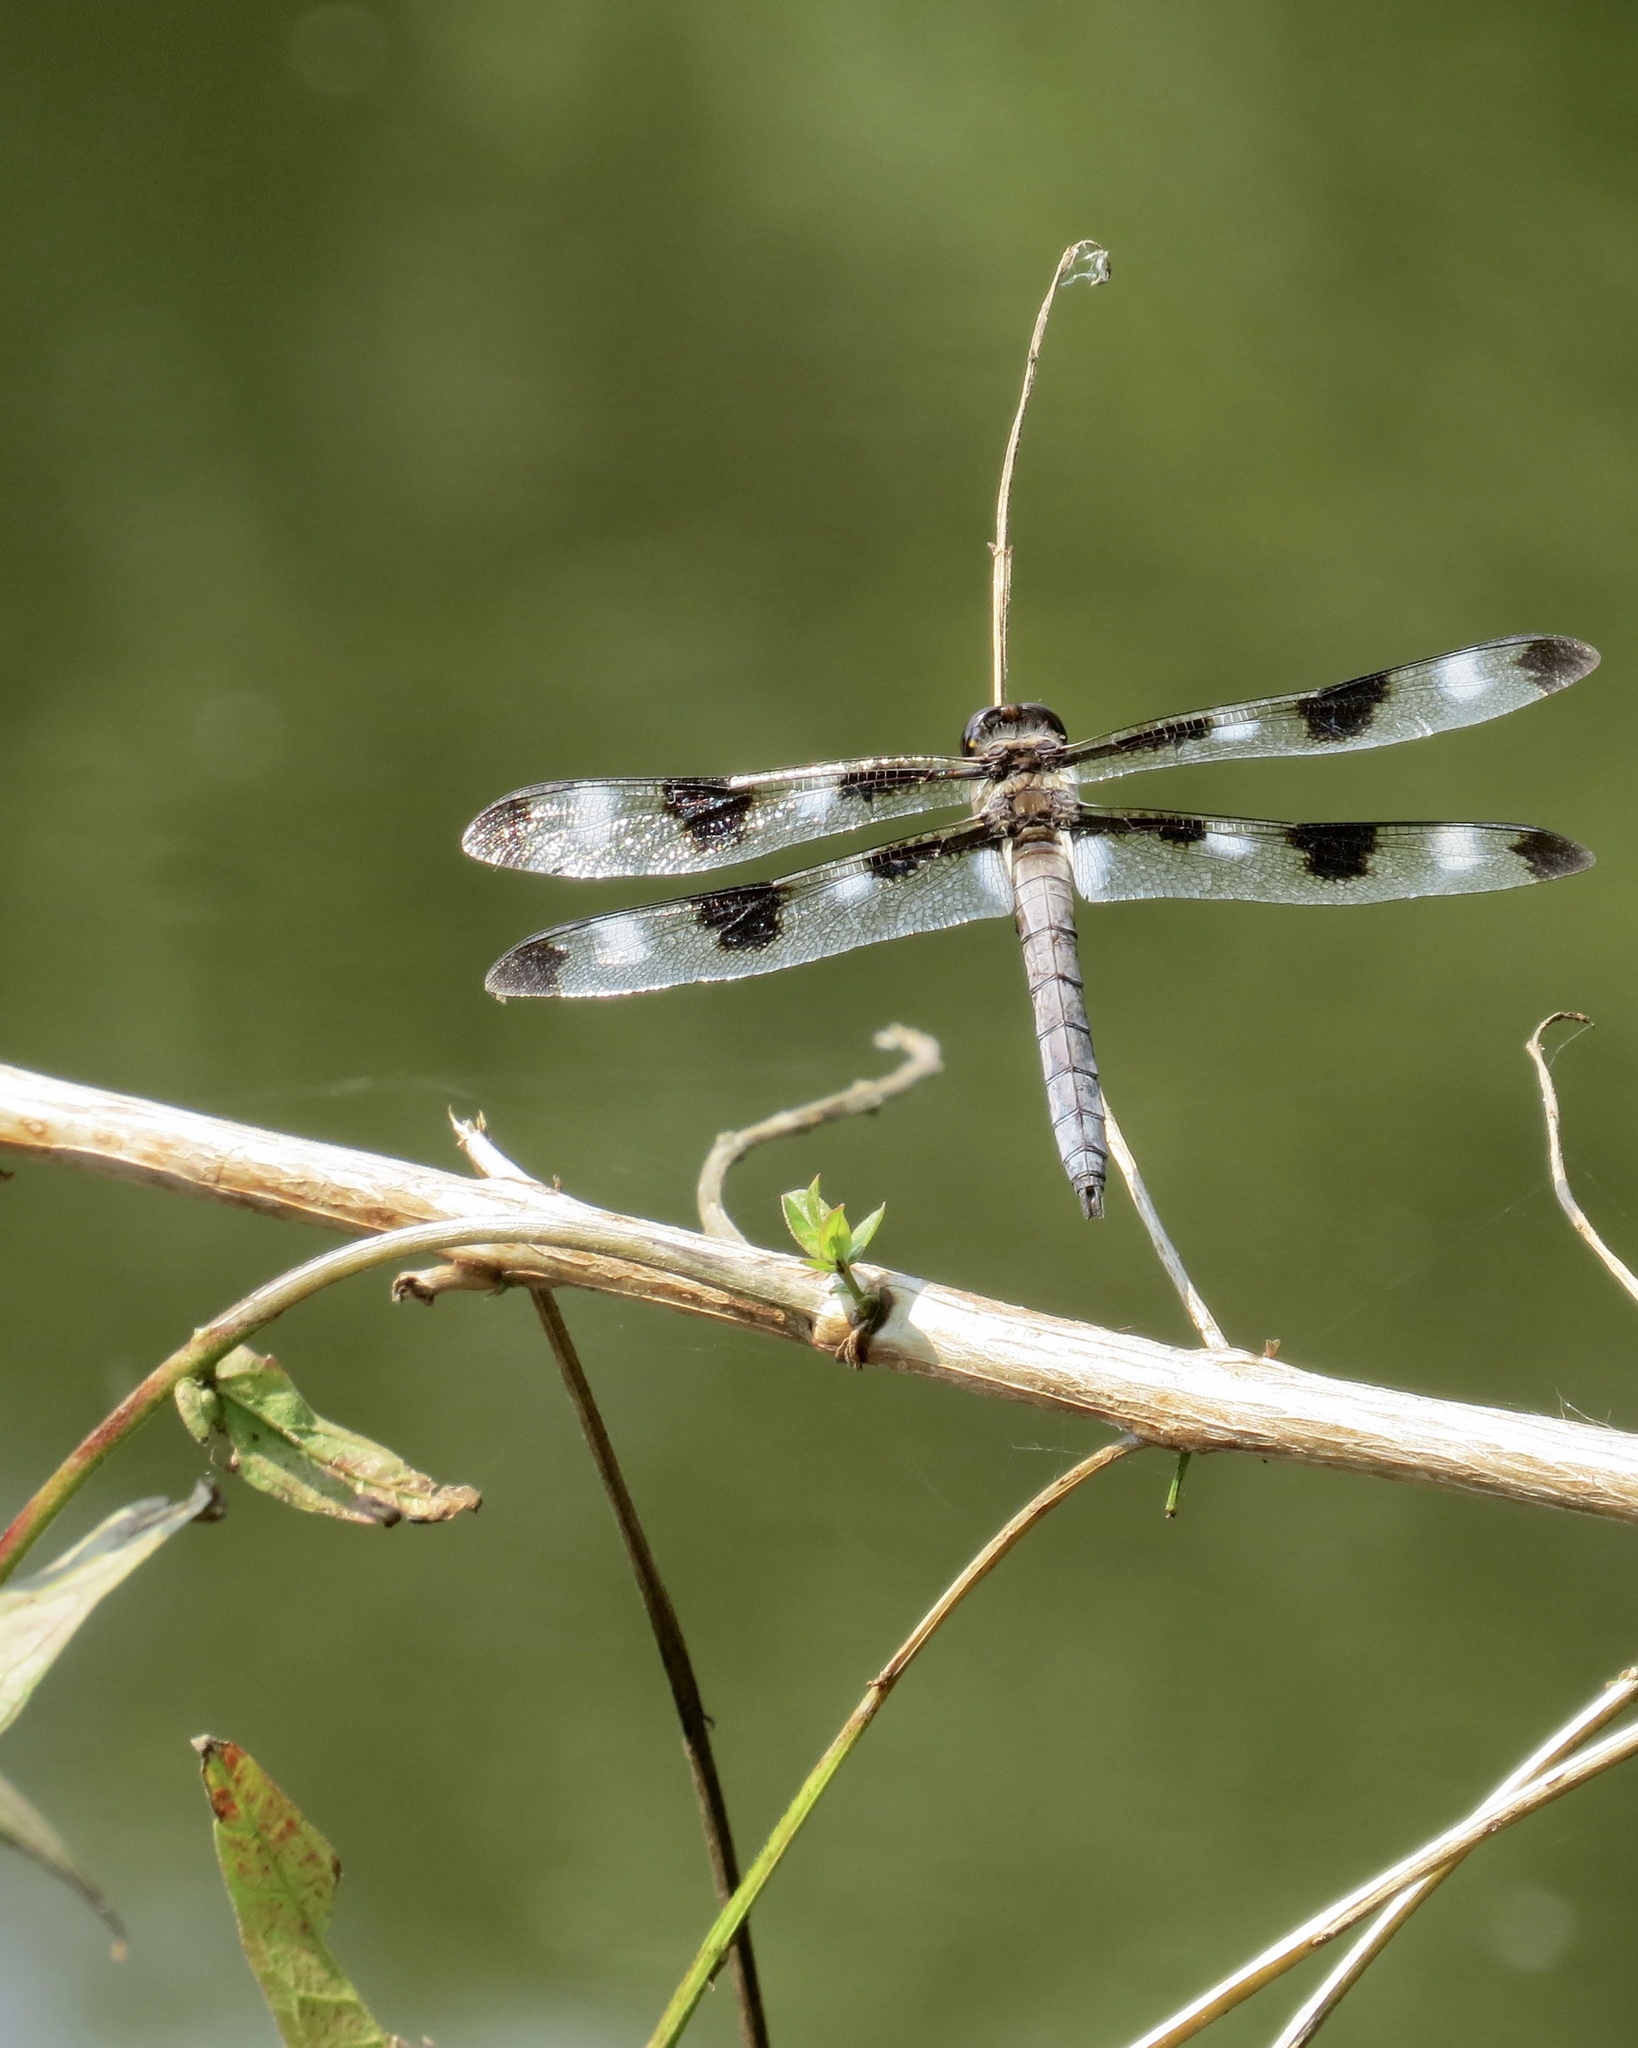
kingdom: Animalia
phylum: Arthropoda
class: Insecta
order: Odonata
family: Libellulidae
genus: Libellula
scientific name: Libellula pulchella
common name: Twelve-spotted skimmer
